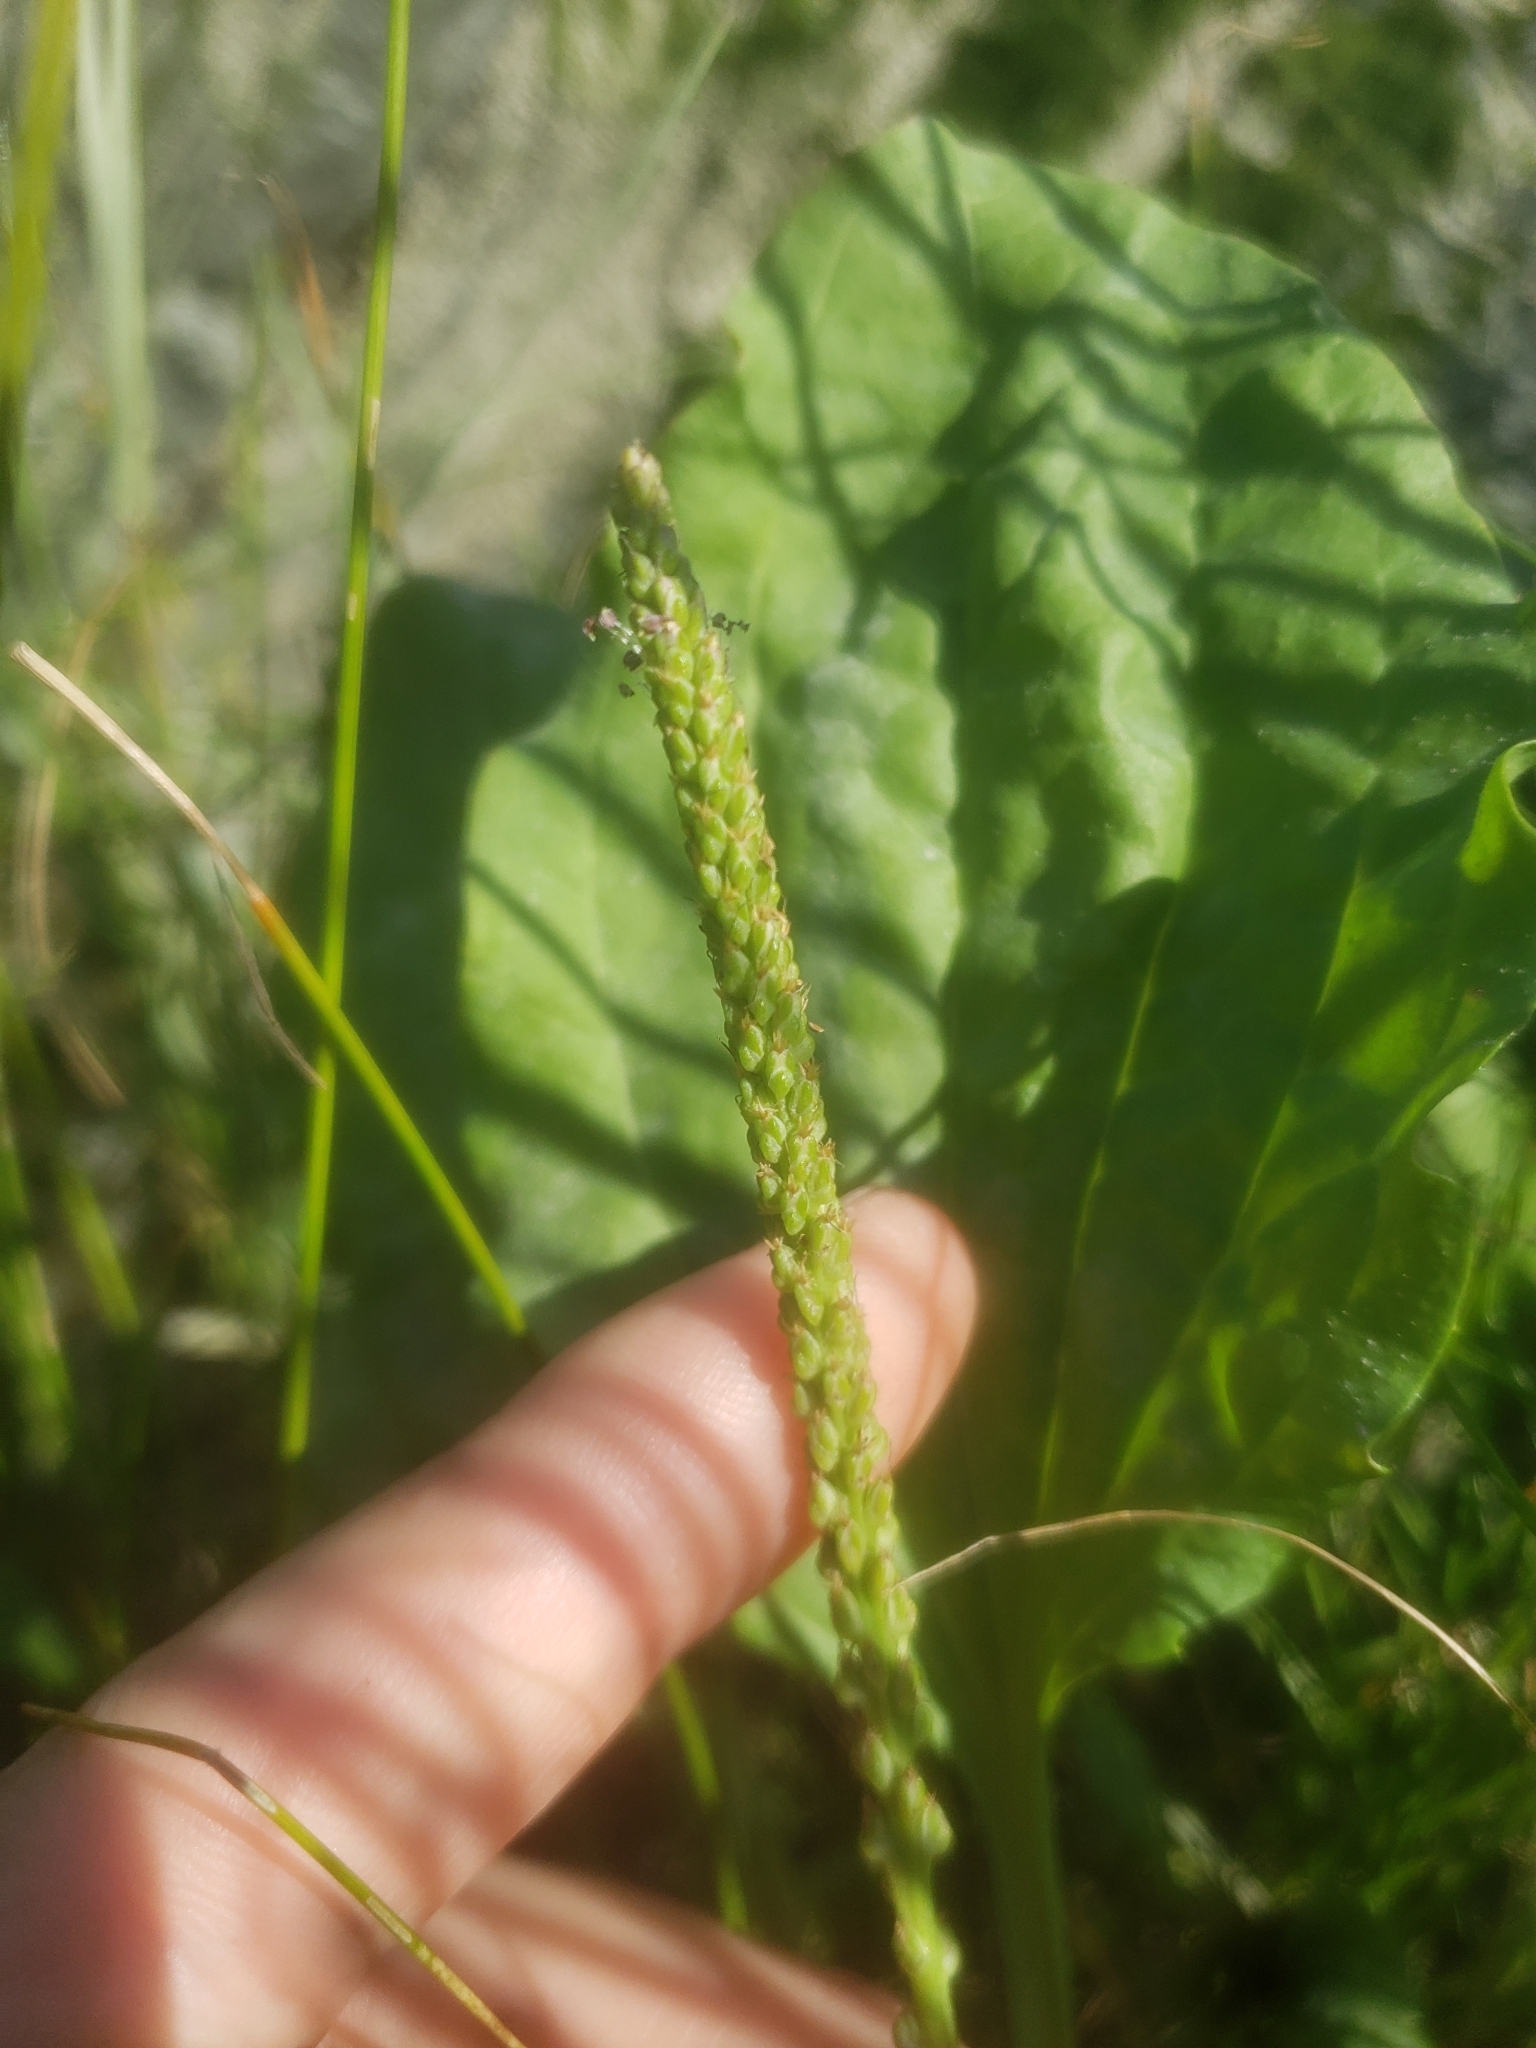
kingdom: Plantae
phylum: Tracheophyta
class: Magnoliopsida
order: Lamiales
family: Plantaginaceae
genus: Plantago
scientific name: Plantago major
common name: Common plantain
